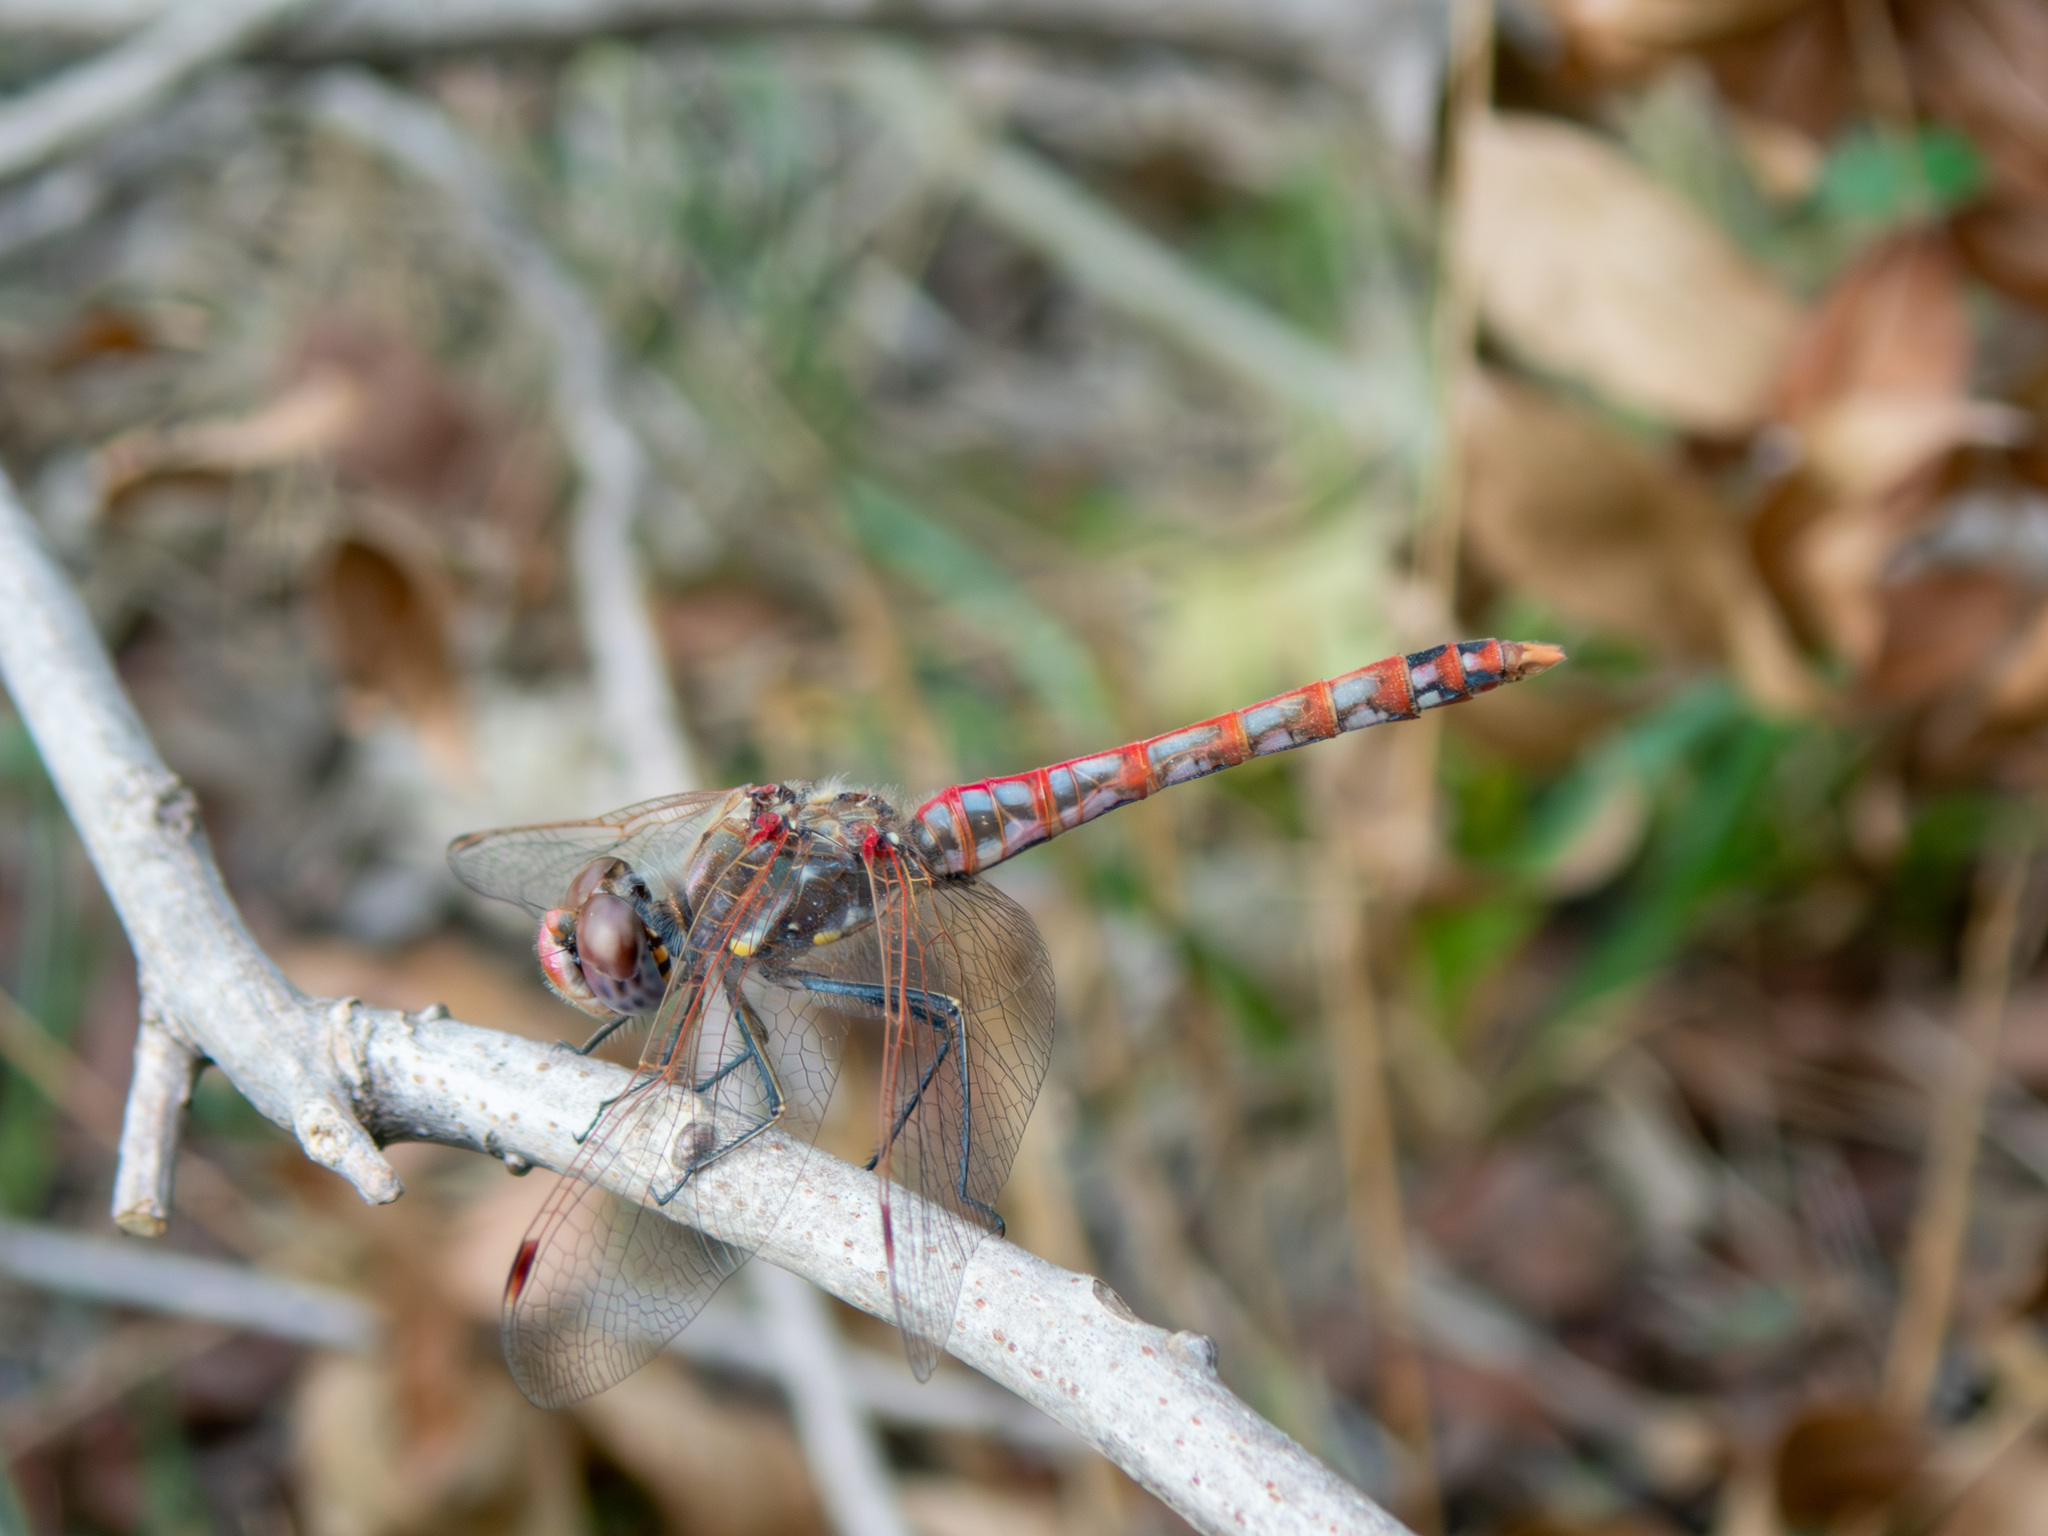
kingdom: Animalia
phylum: Arthropoda
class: Insecta
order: Odonata
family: Libellulidae
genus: Sympetrum
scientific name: Sympetrum corruptum
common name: Variegated meadowhawk
